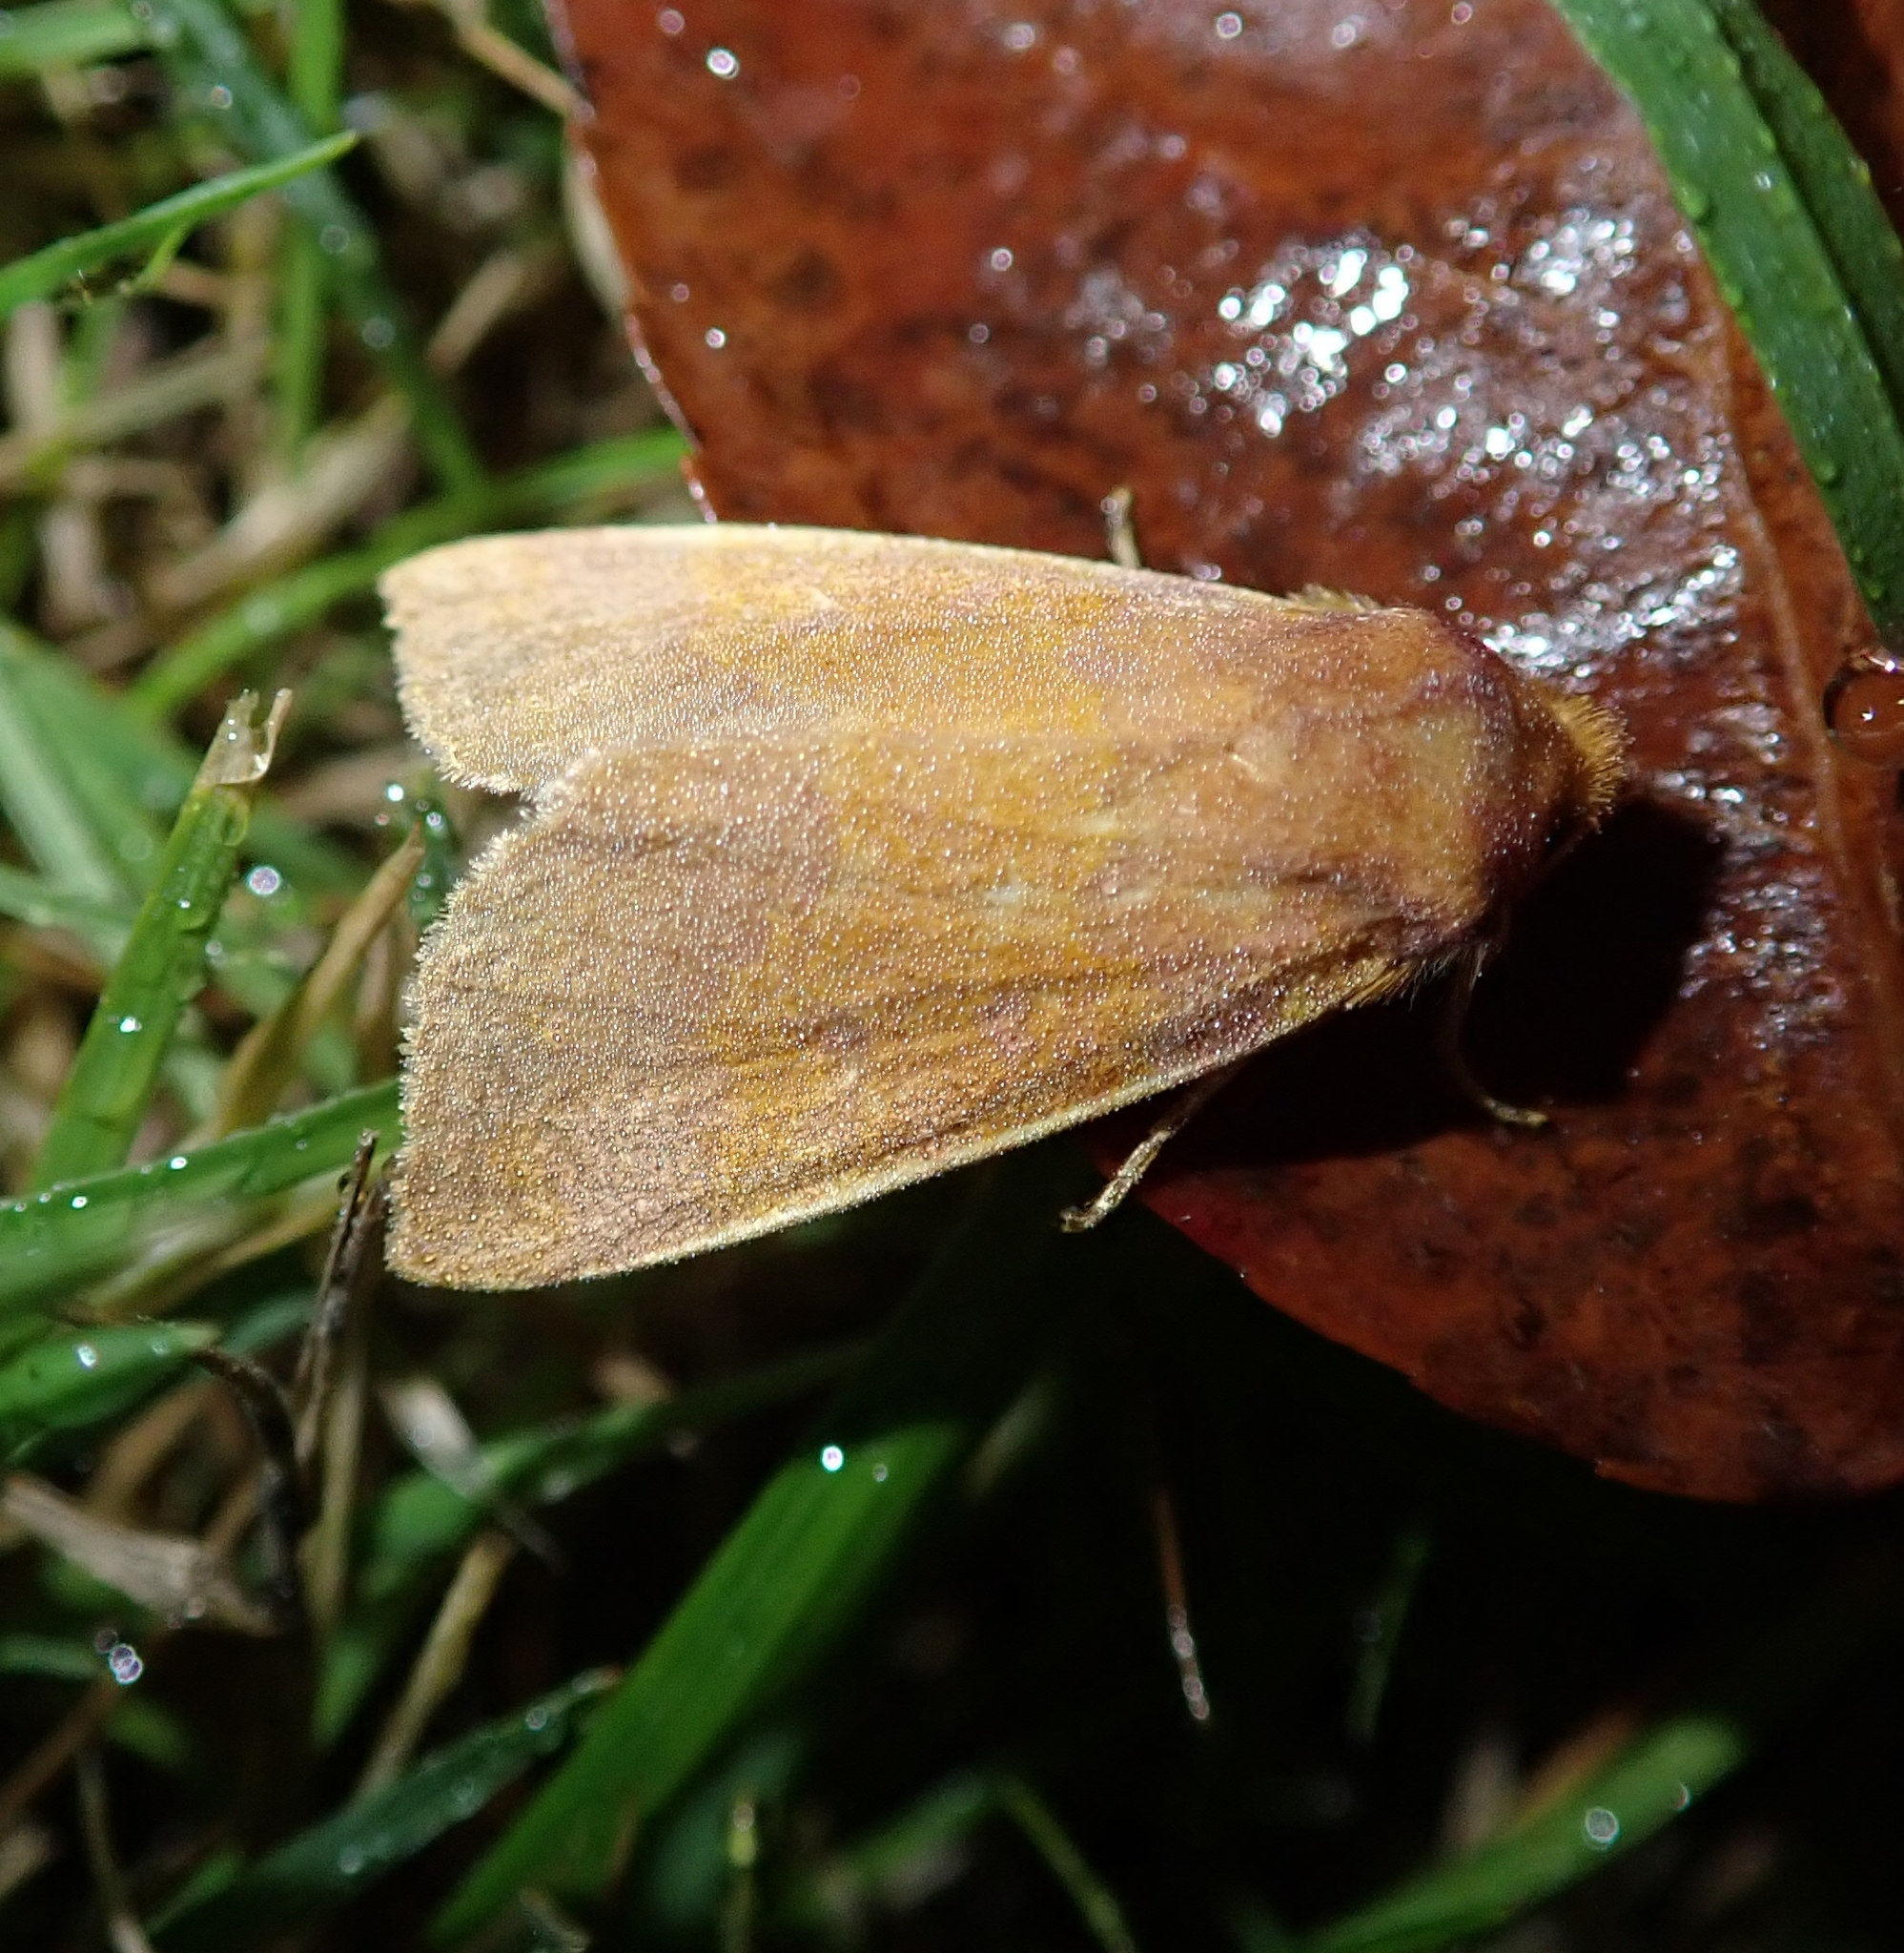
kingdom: Animalia
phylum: Arthropoda
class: Insecta
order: Lepidoptera
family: Noctuidae
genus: Tiliacea
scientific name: Tiliacea aurago
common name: Barred sallow
